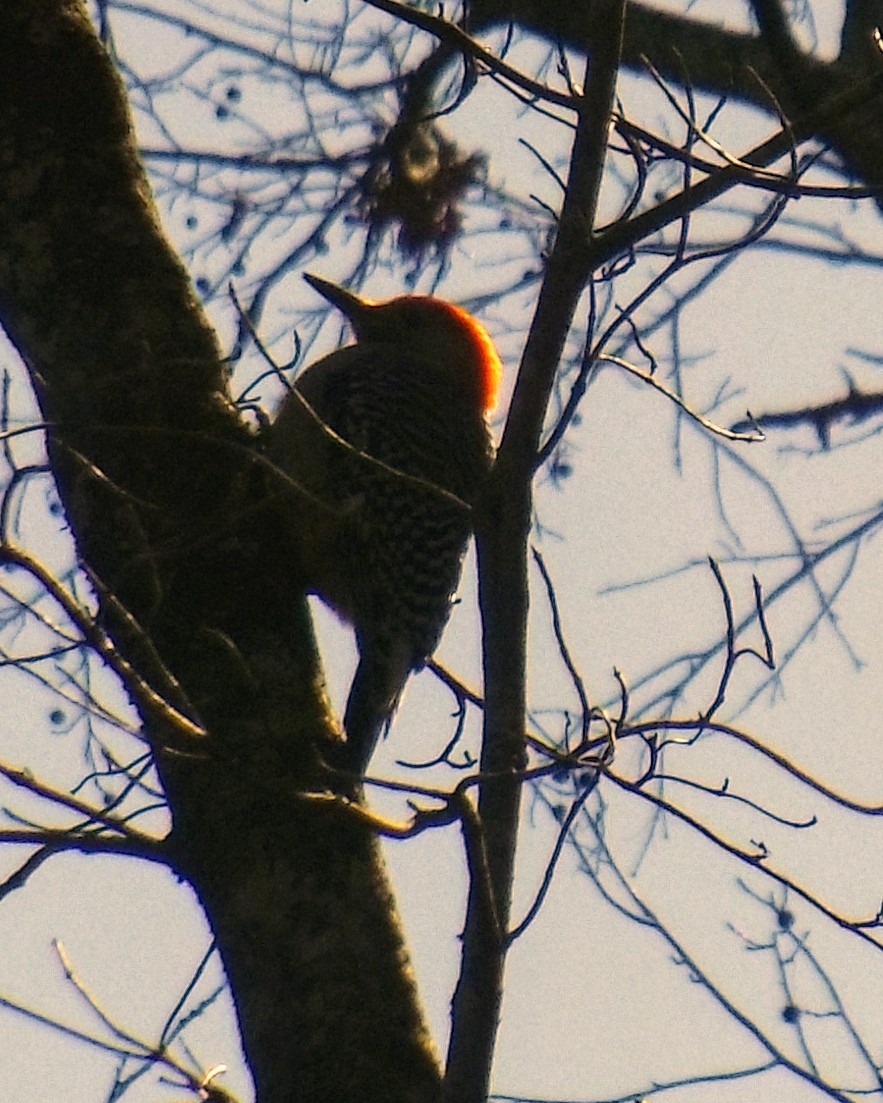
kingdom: Animalia
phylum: Chordata
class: Aves
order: Piciformes
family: Picidae
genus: Melanerpes
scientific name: Melanerpes carolinus
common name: Red-bellied woodpecker
